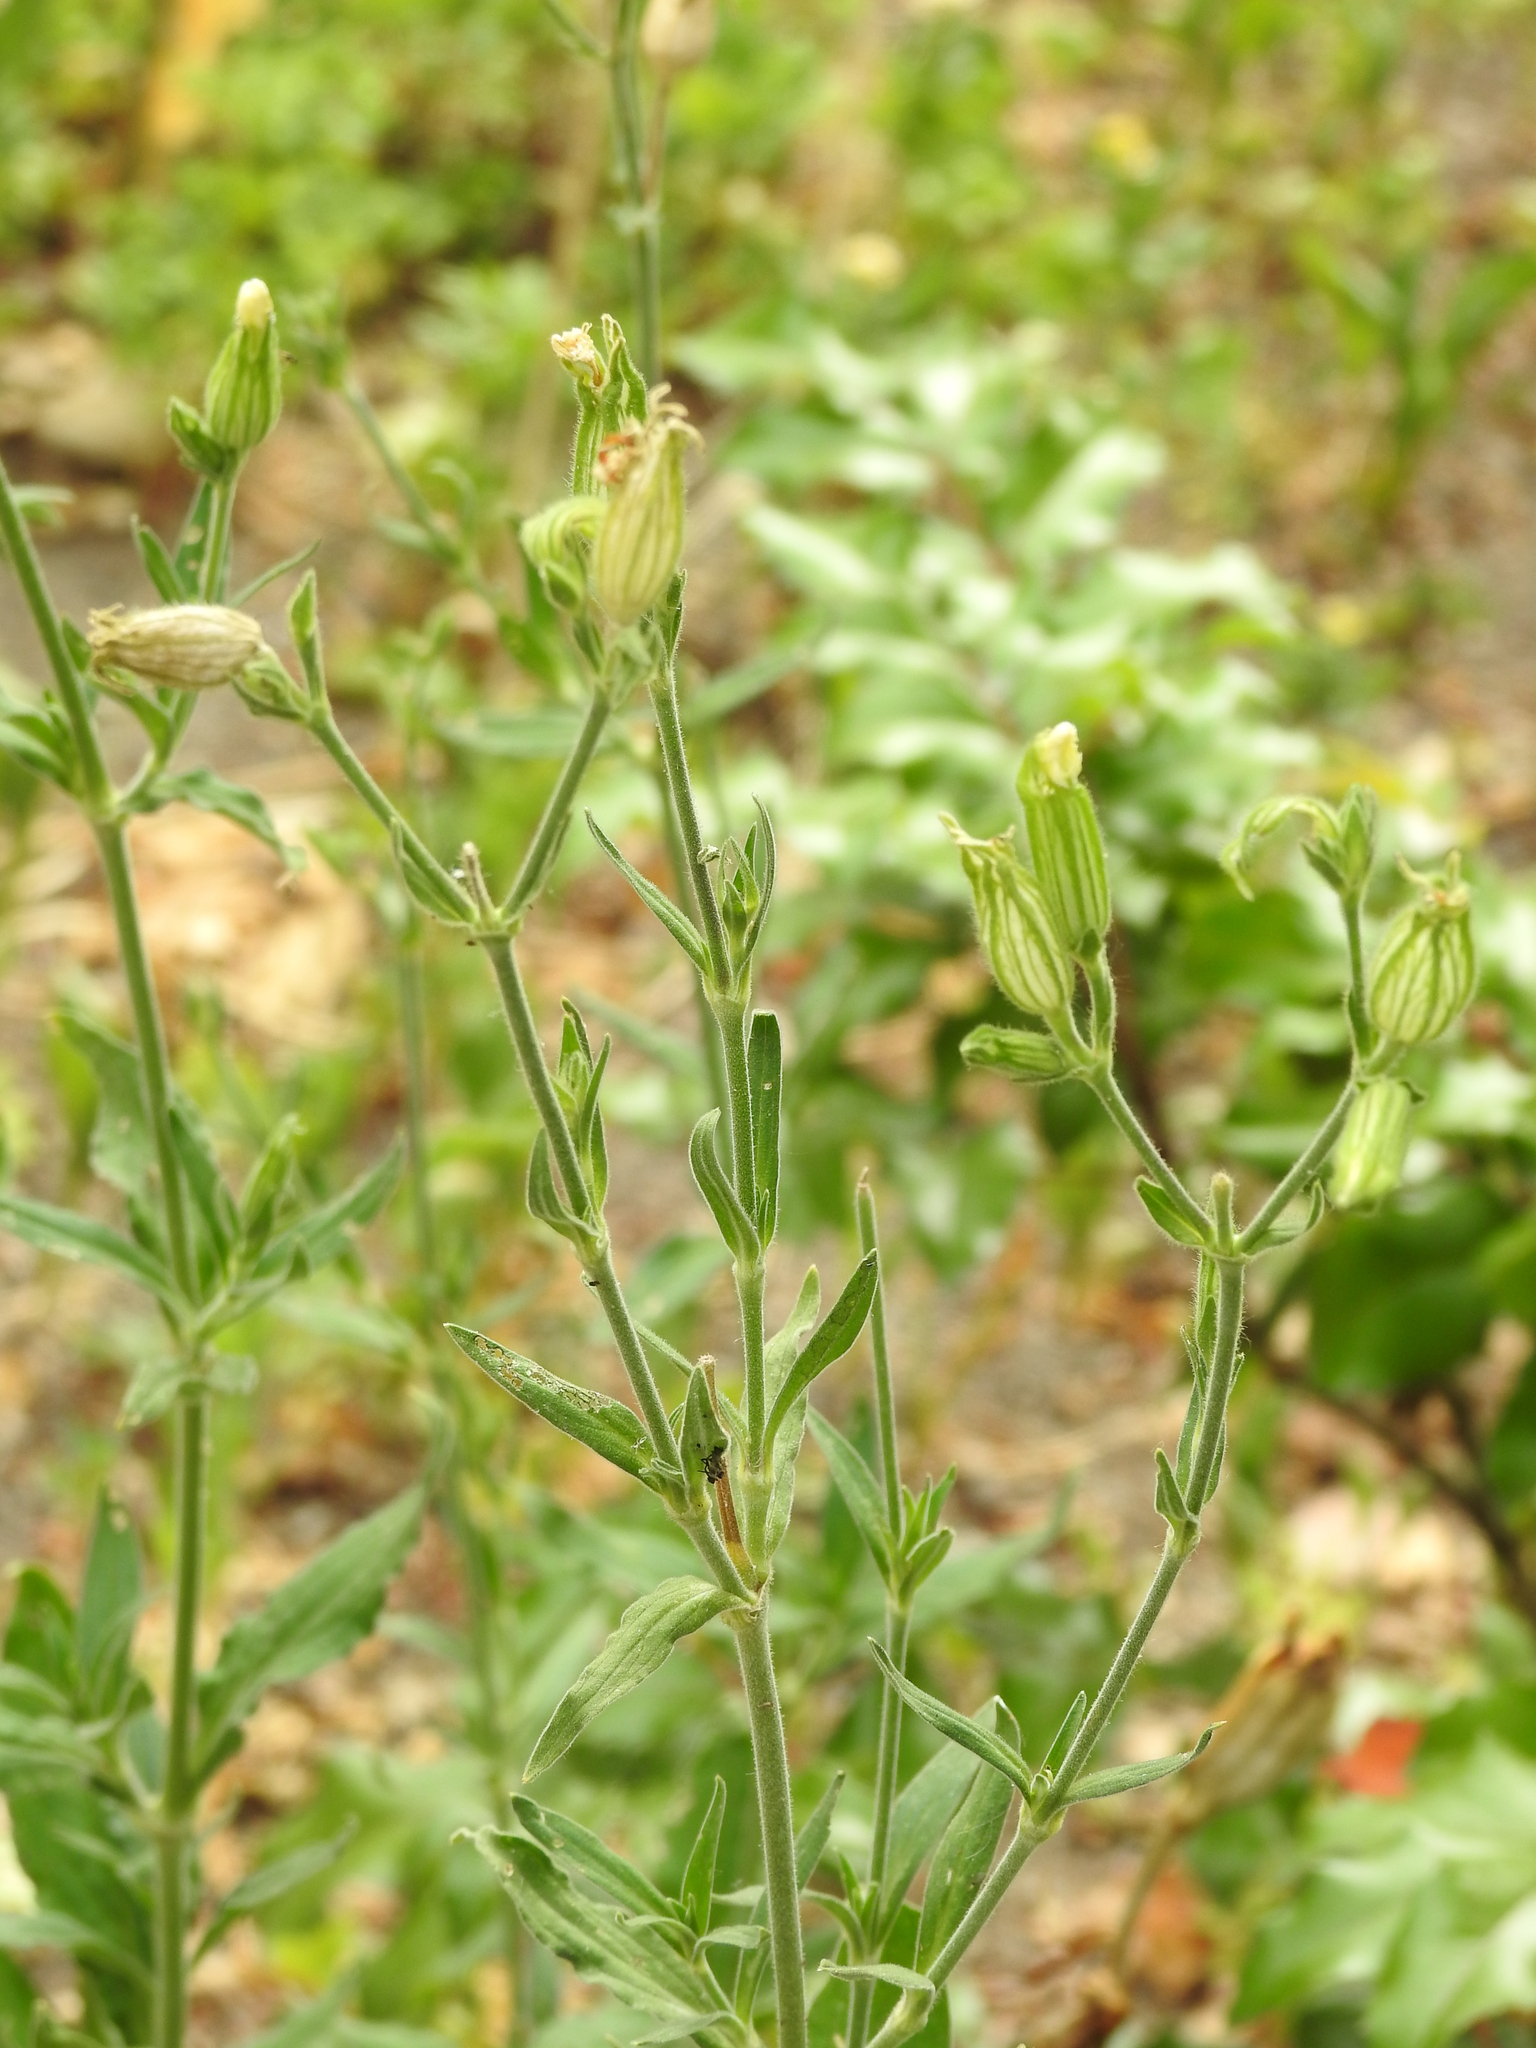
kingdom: Plantae
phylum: Tracheophyta
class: Magnoliopsida
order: Caryophyllales
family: Caryophyllaceae
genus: Silene
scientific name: Silene latifolia
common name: White campion
